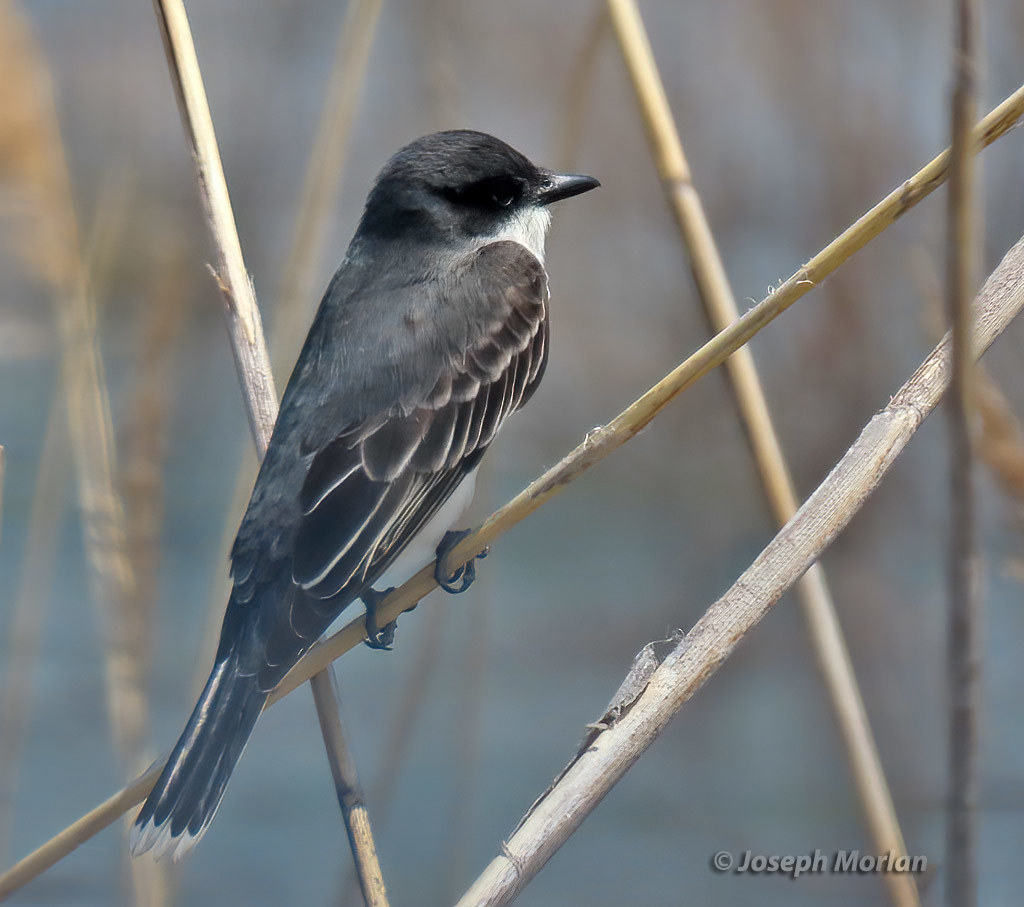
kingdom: Animalia
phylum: Chordata
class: Aves
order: Passeriformes
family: Tyrannidae
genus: Tyrannus
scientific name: Tyrannus tyrannus
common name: Eastern kingbird
